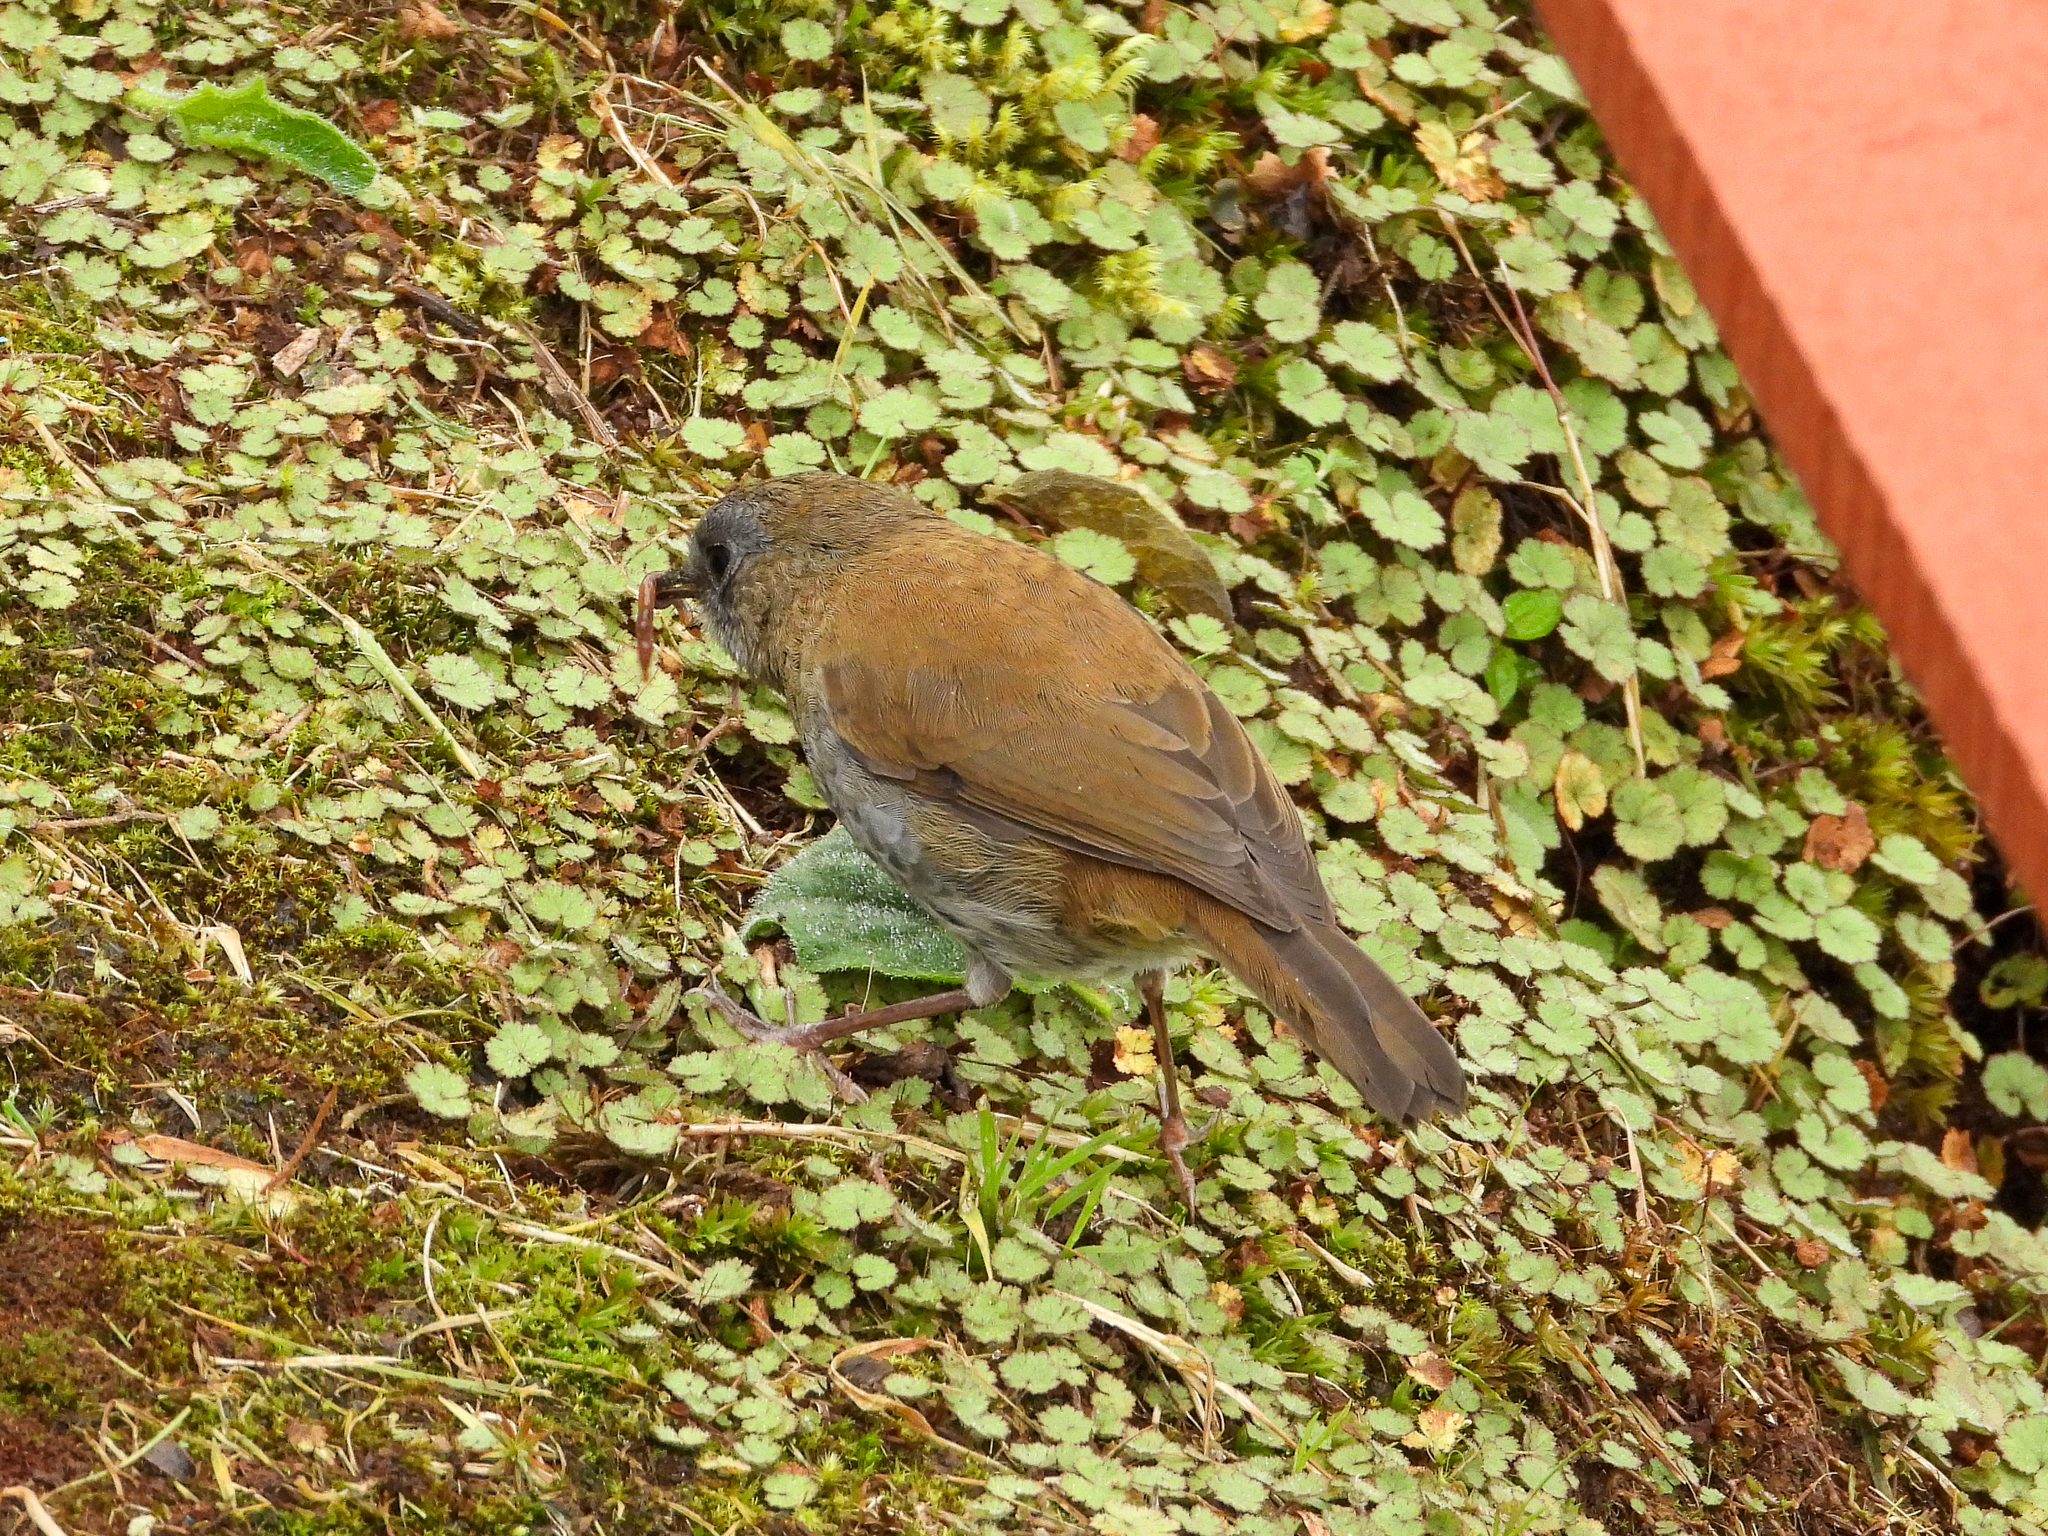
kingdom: Animalia
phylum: Chordata
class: Aves
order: Passeriformes
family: Turdidae
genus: Catharus
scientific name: Catharus gracilirostris
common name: Black-billed nightingale-thrush
